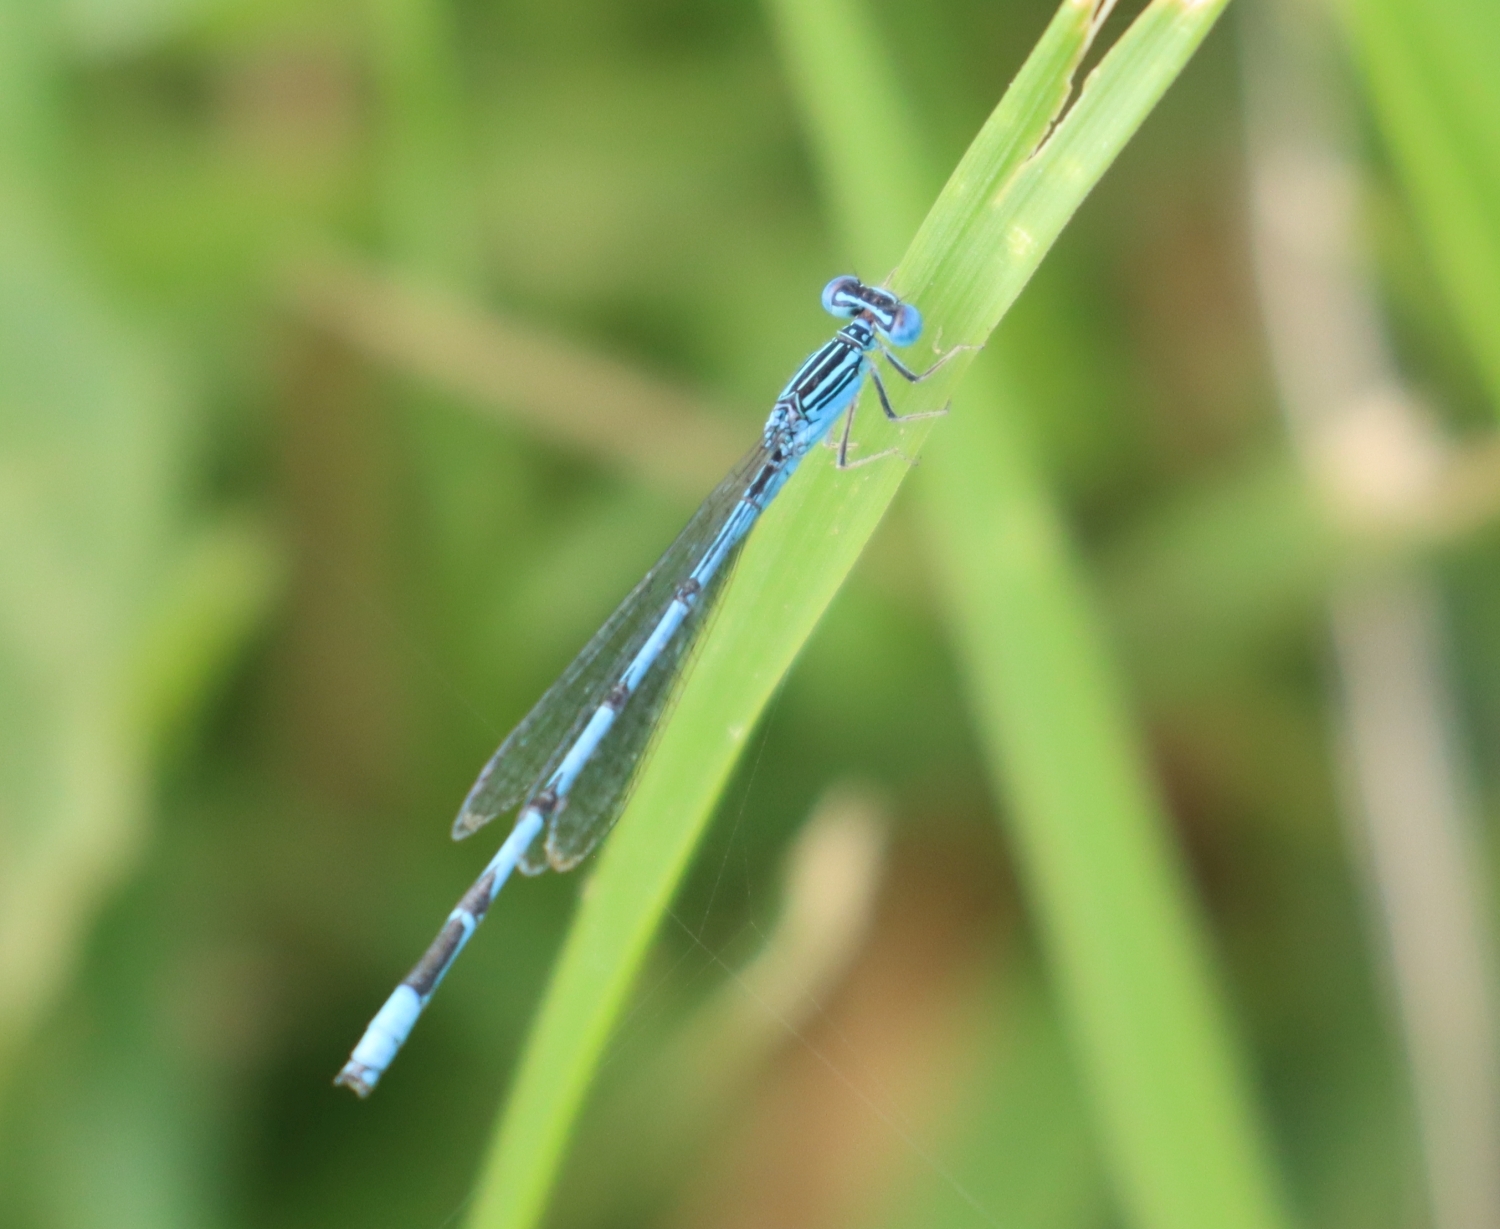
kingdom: Animalia
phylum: Arthropoda
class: Insecta
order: Odonata
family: Coenagrionidae
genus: Enallagma
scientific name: Enallagma basidens
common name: Double-striped bluet
